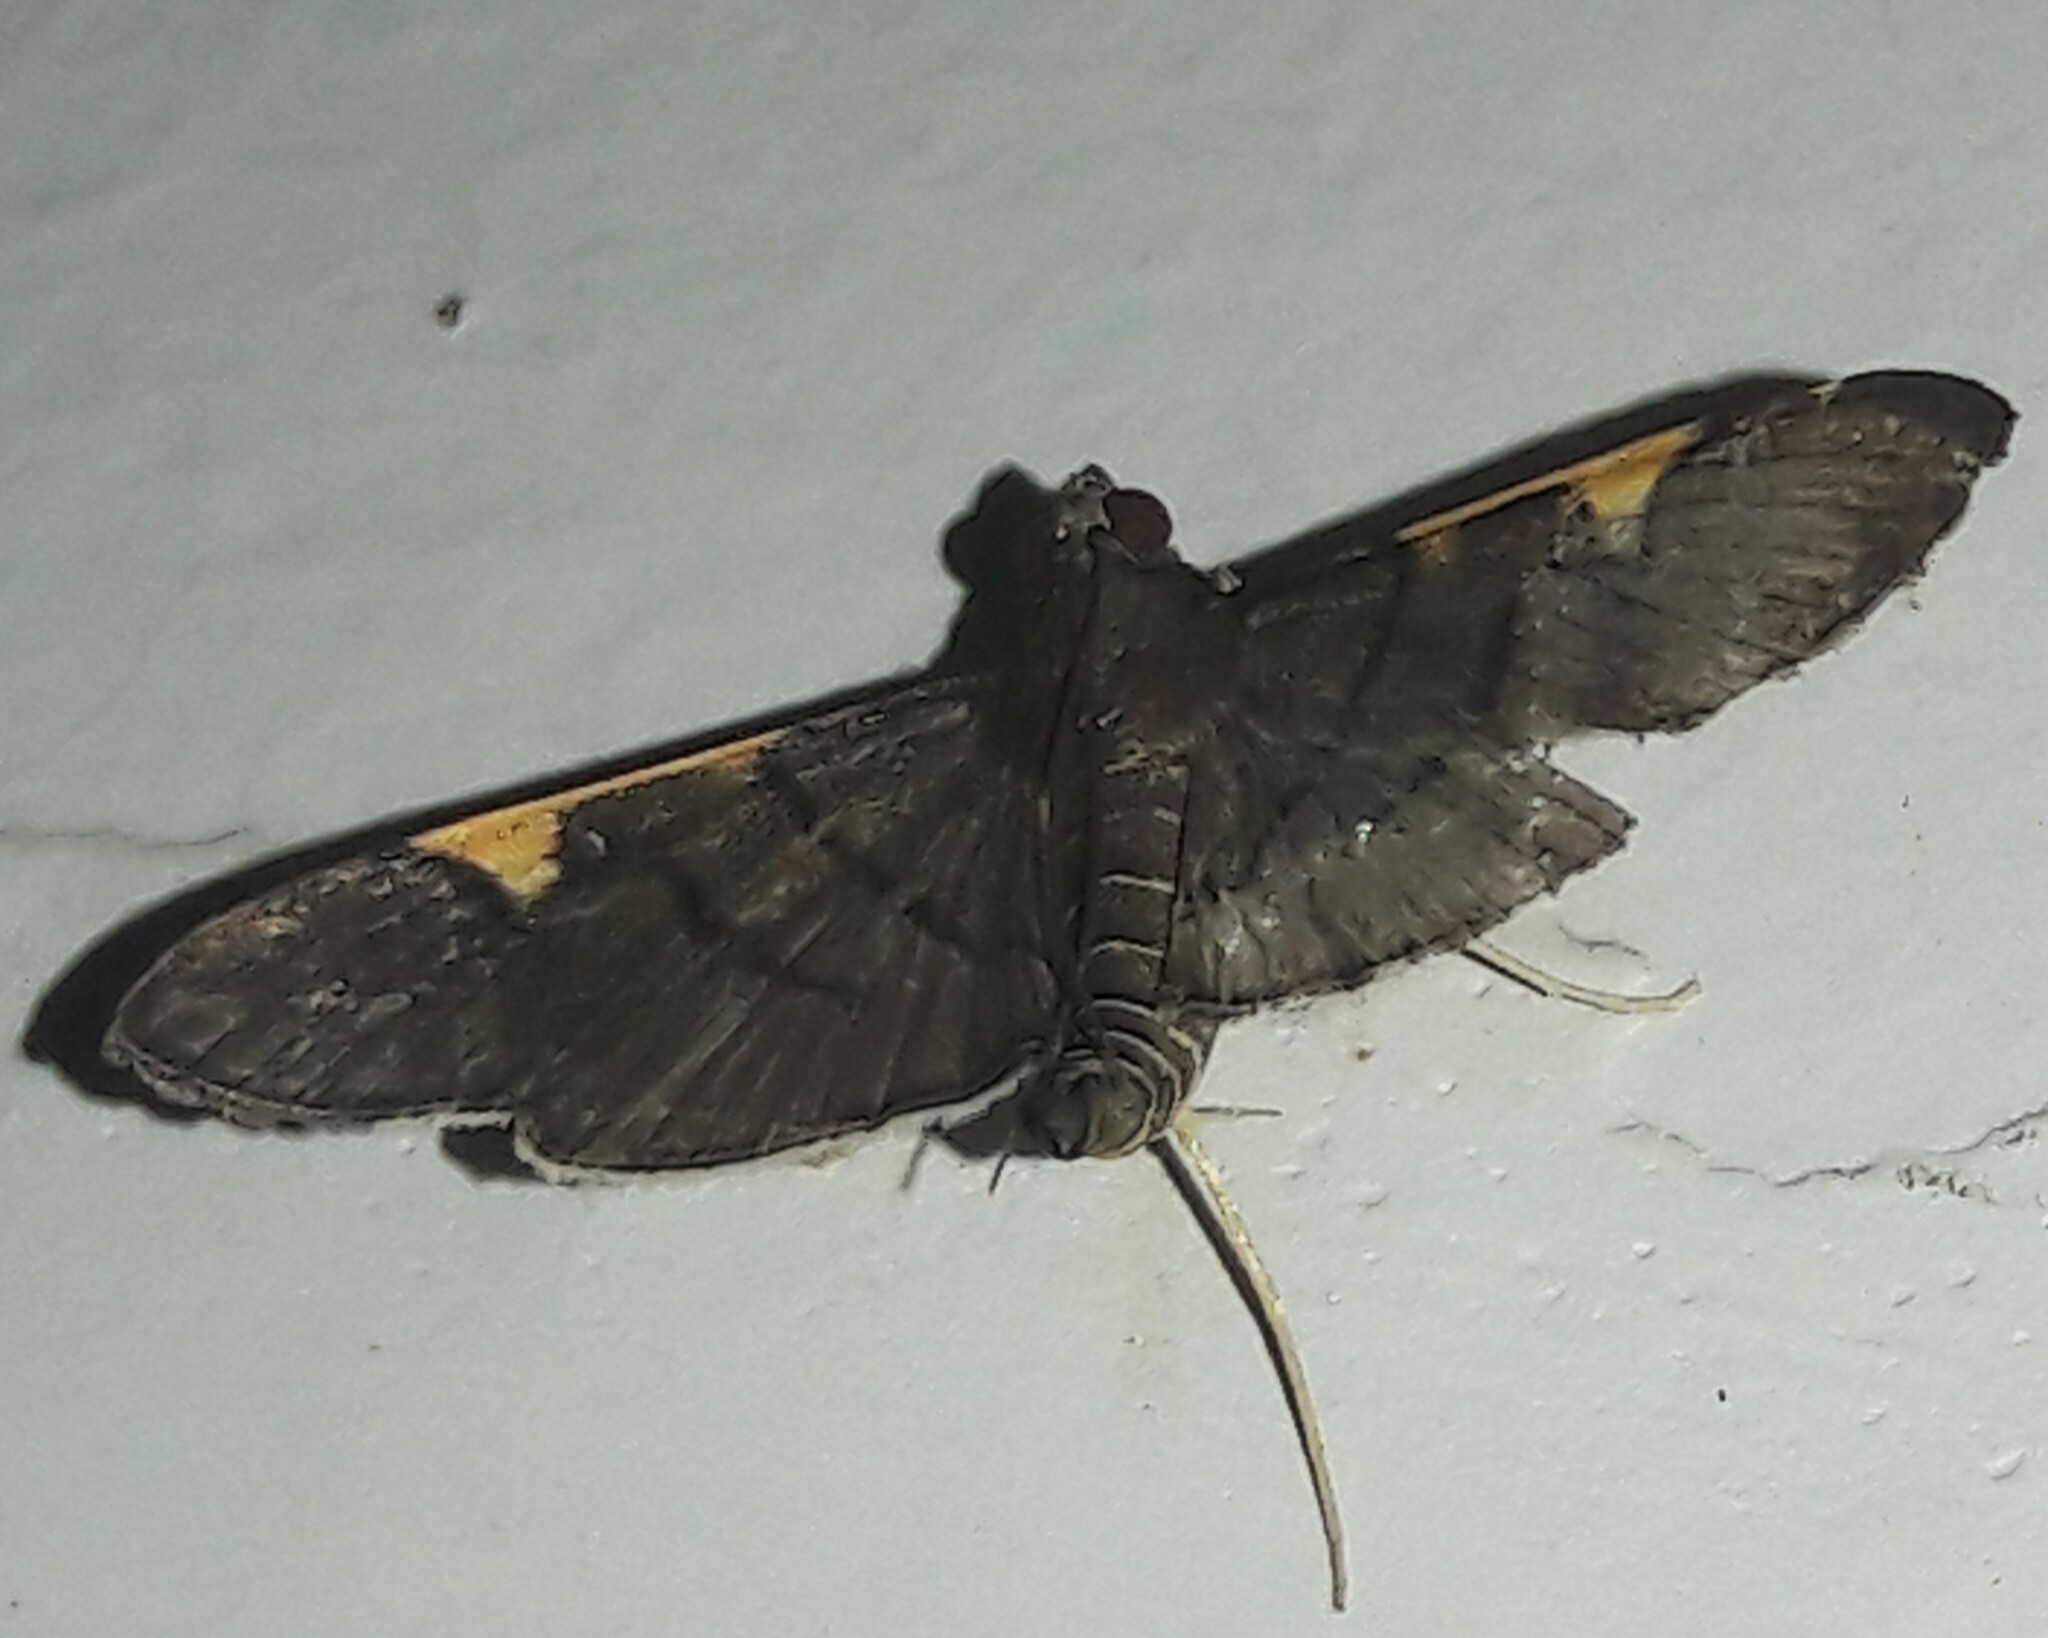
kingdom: Animalia
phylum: Arthropoda
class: Insecta
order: Lepidoptera
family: Crambidae
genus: Omiodes
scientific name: Omiodes simialis
